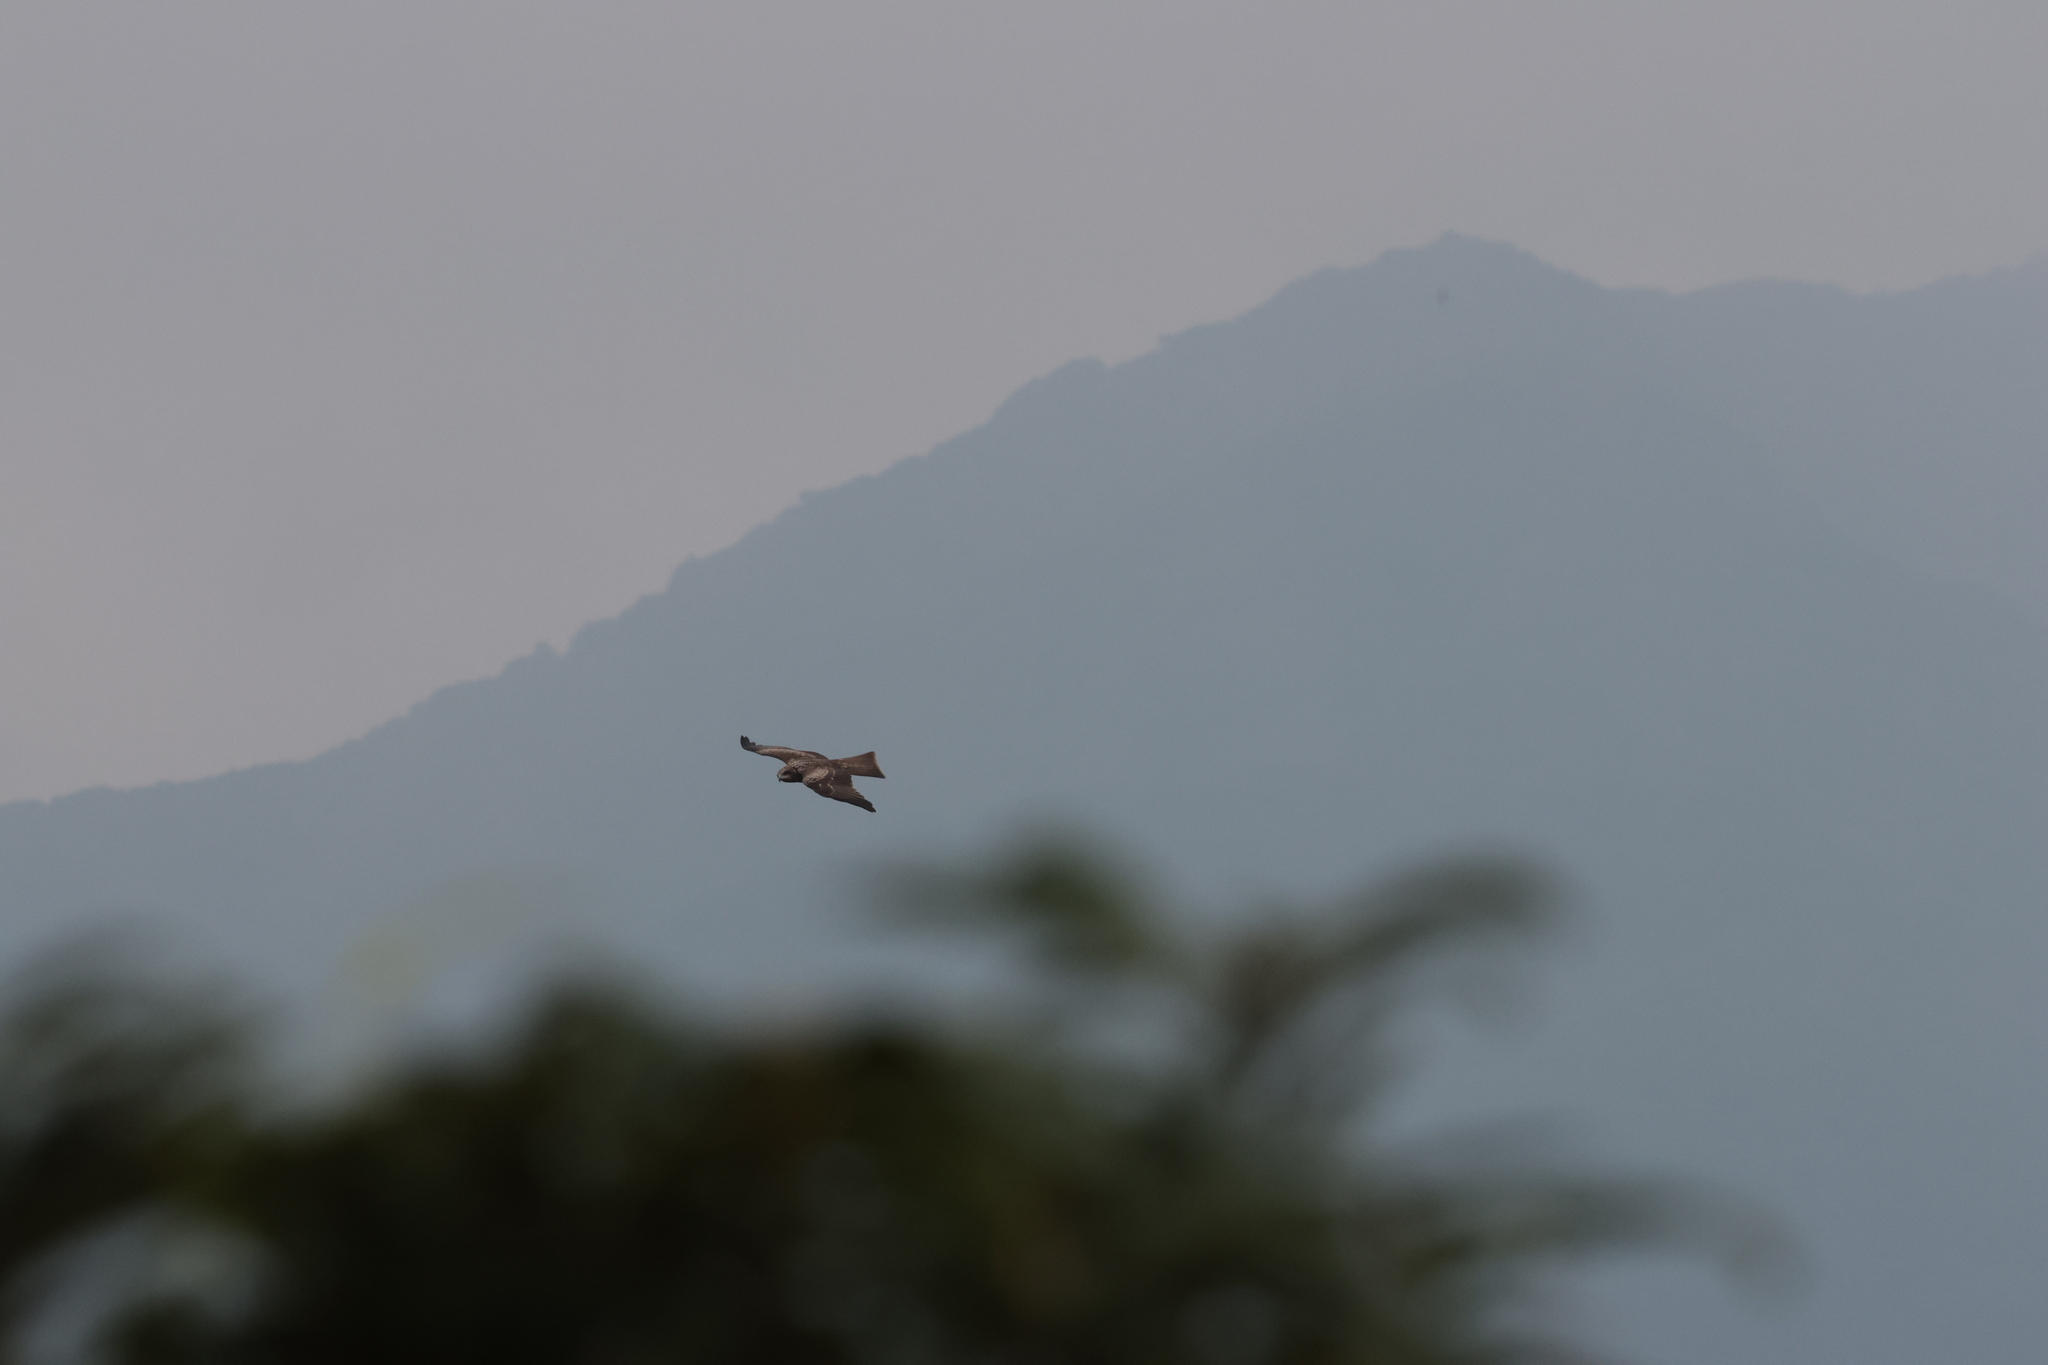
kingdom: Animalia
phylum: Chordata
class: Aves
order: Accipitriformes
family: Accipitridae
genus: Milvus
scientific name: Milvus migrans
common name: Black kite
